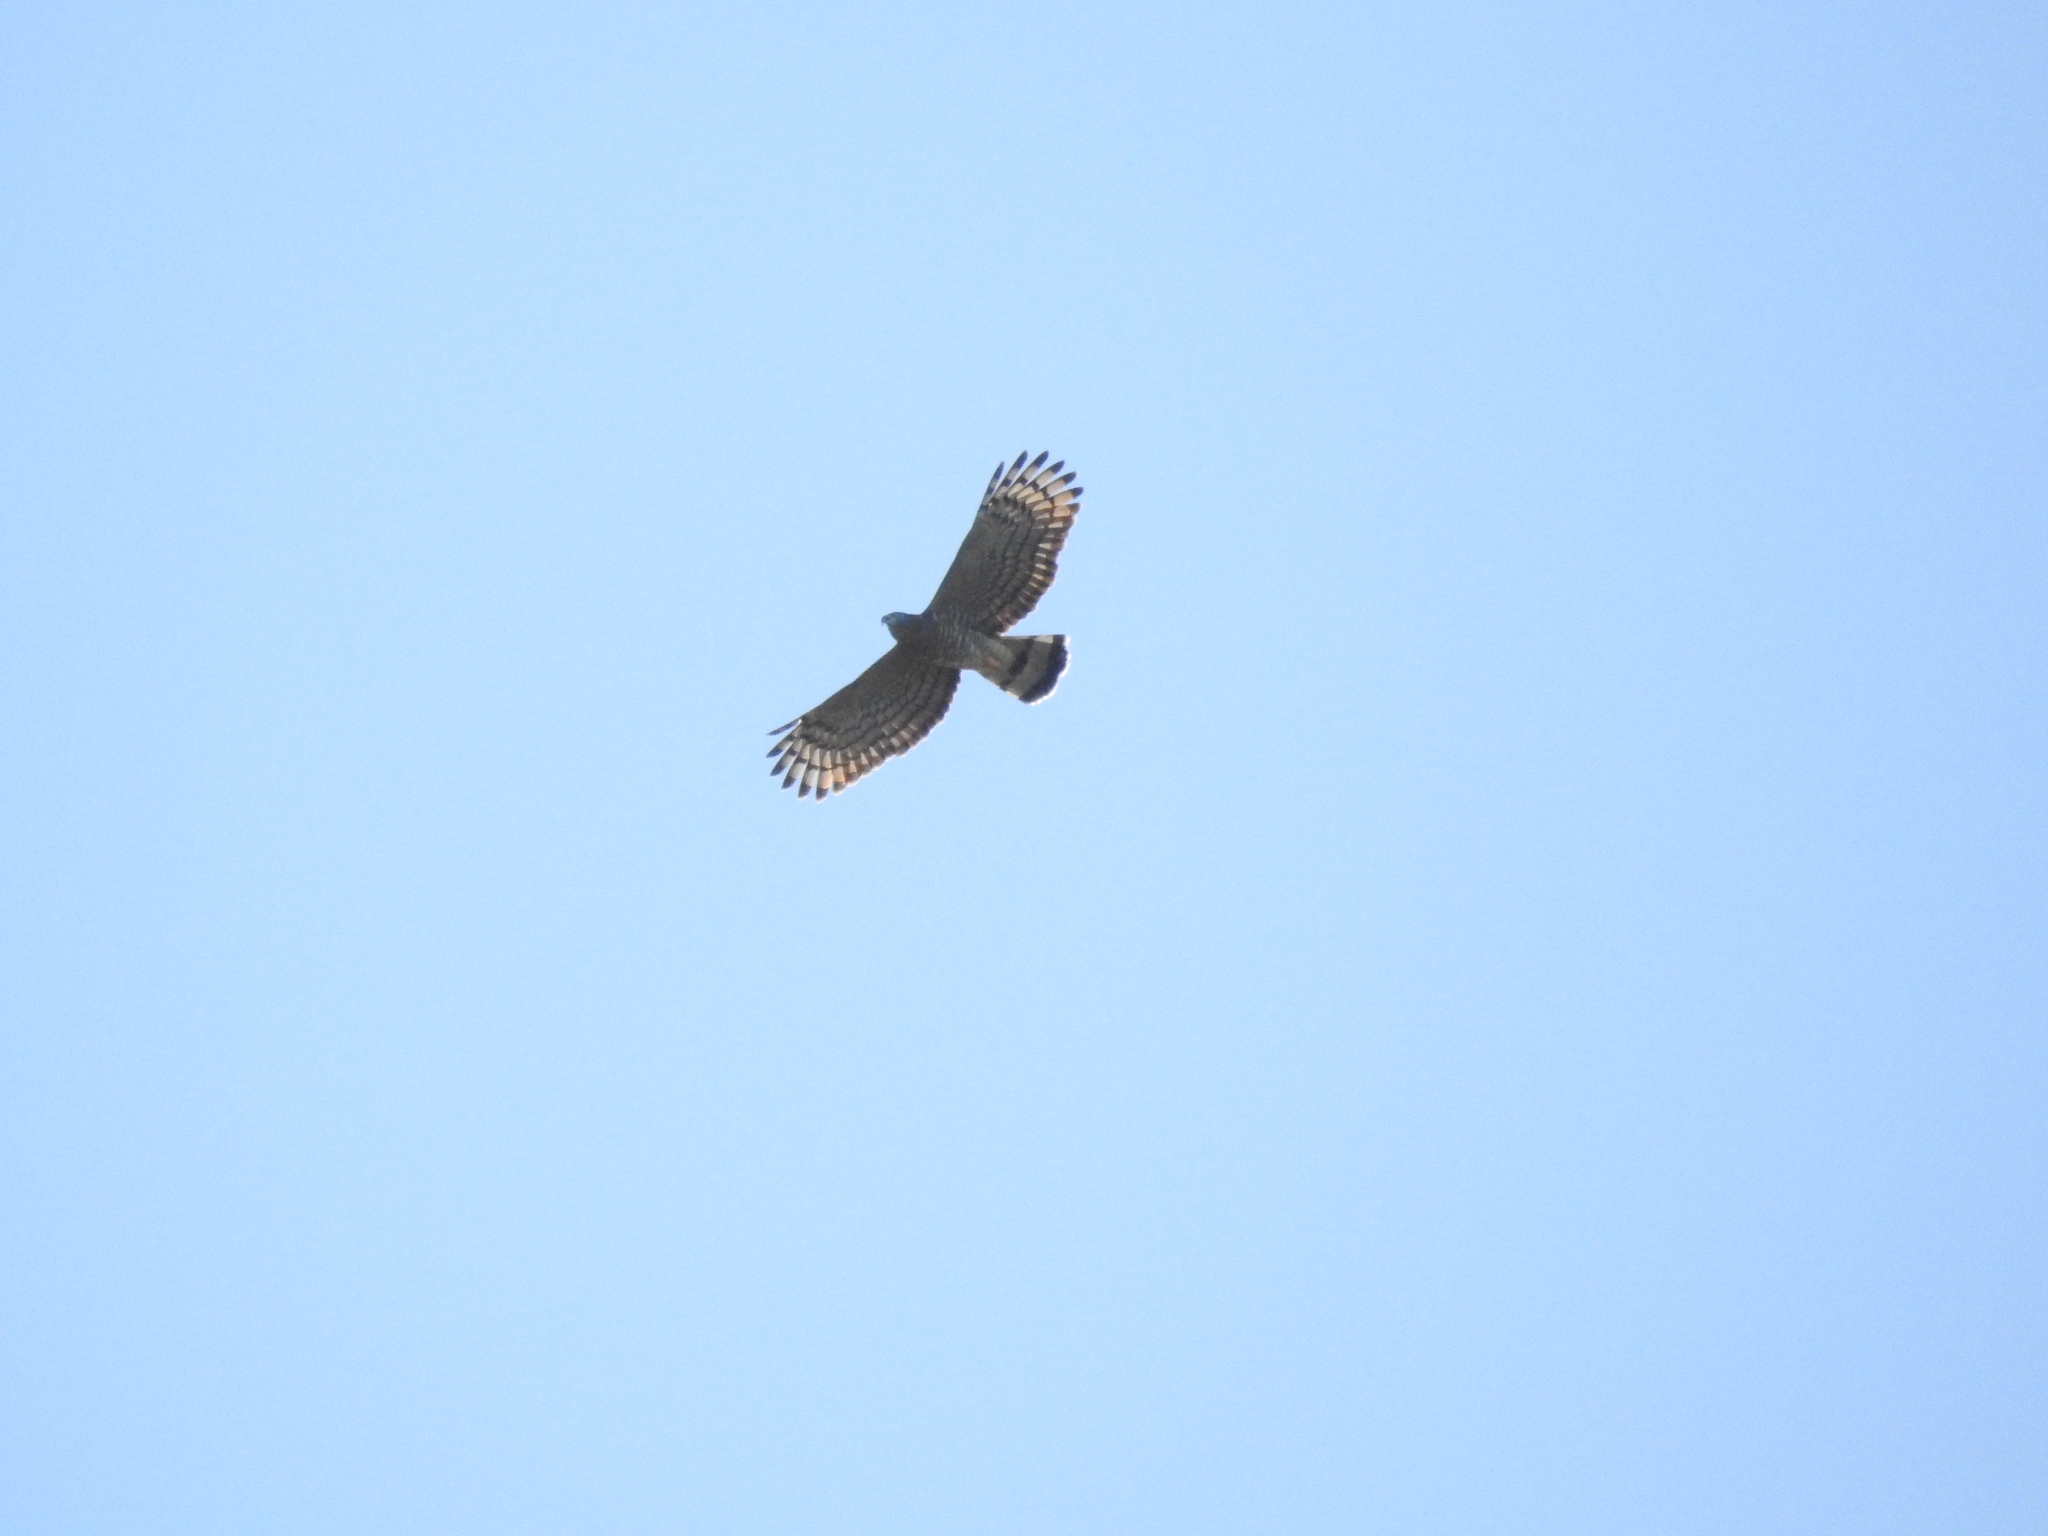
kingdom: Animalia
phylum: Chordata
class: Aves
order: Accipitriformes
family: Accipitridae
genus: Chondrohierax
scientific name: Chondrohierax uncinatus
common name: Hook-billed kite
